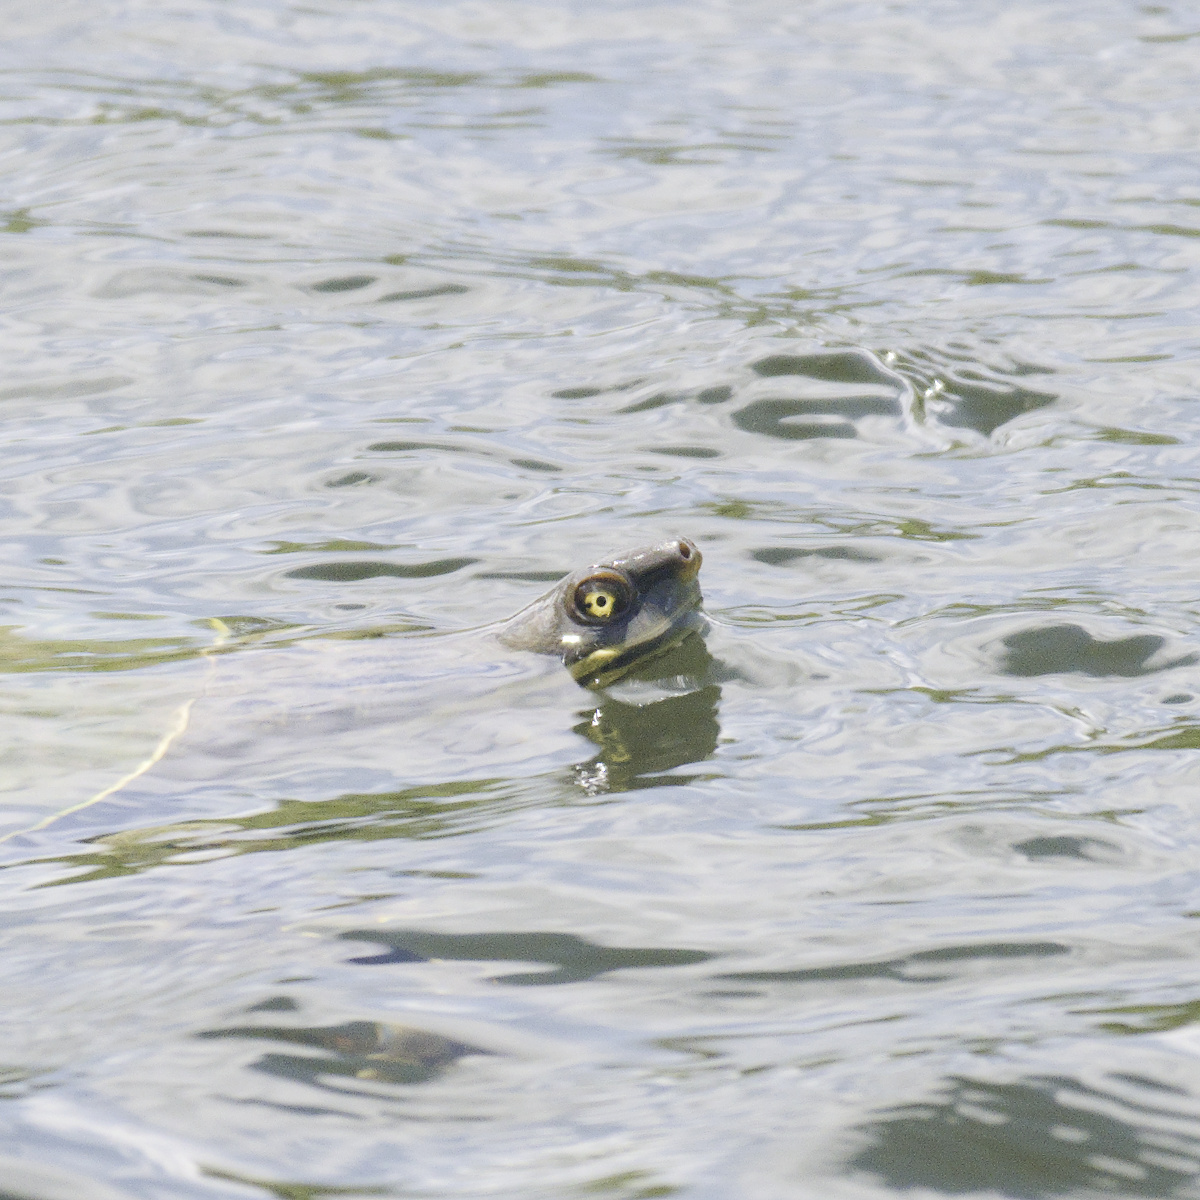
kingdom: Animalia
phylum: Chordata
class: Testudines
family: Chelidae
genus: Emydura
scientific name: Emydura macquarii
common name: Murray river turtle
